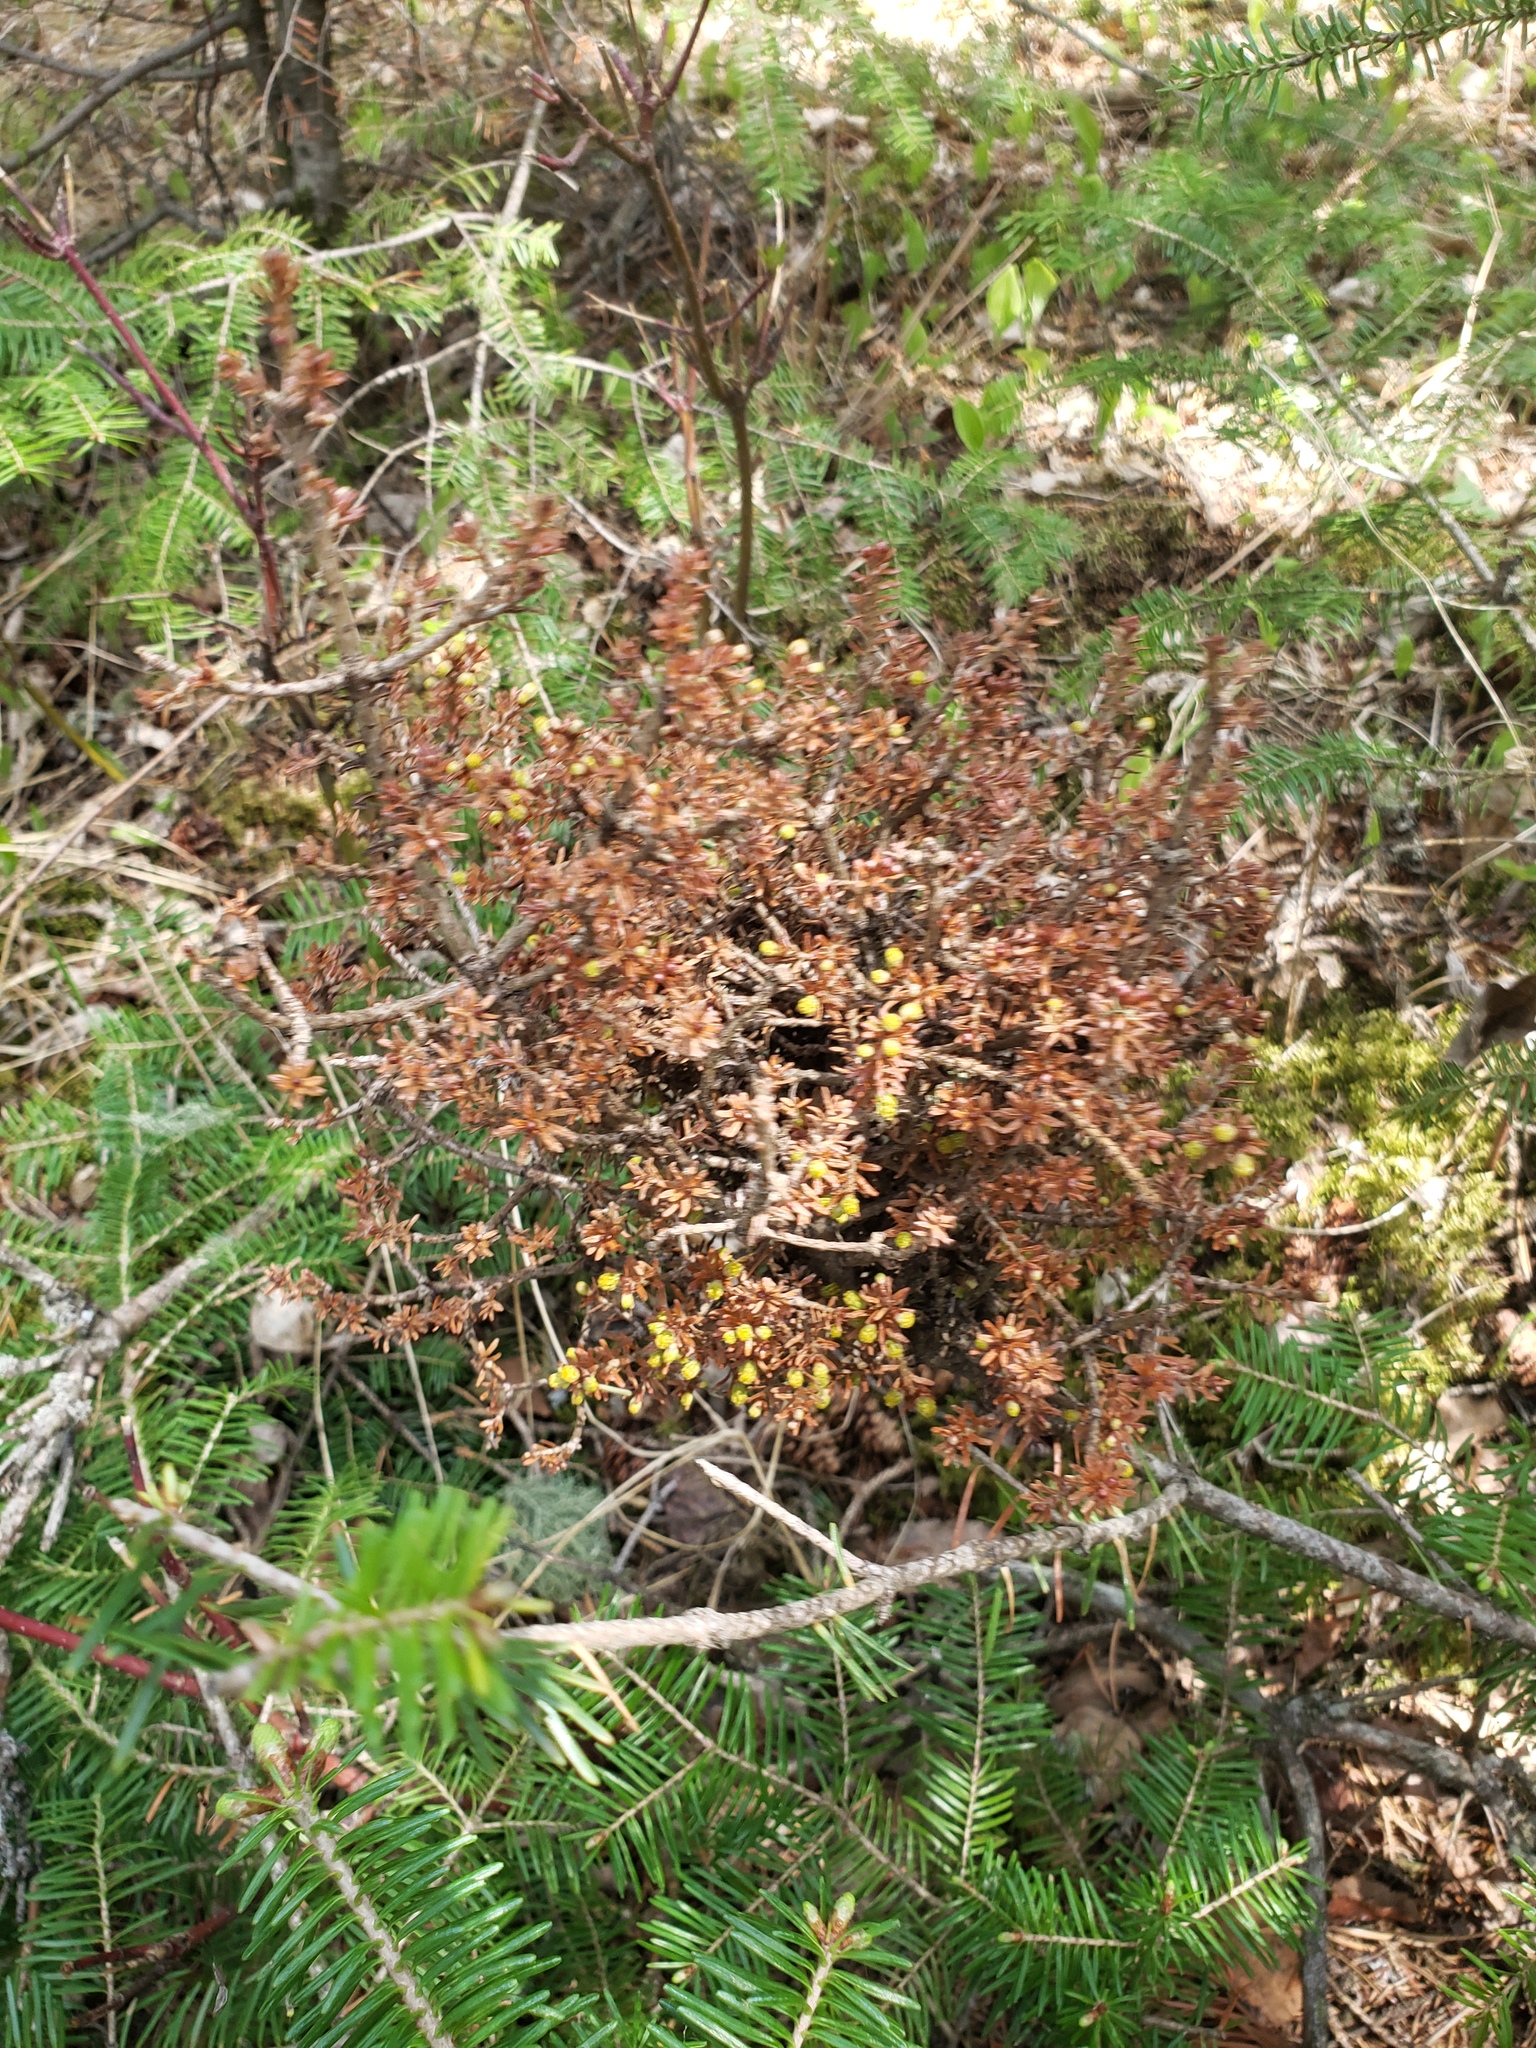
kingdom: Plantae
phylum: Tracheophyta
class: Magnoliopsida
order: Santalales
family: Viscaceae
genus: Arceuthobium
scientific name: Arceuthobium pusillum
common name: Dwarf-mistletoe
